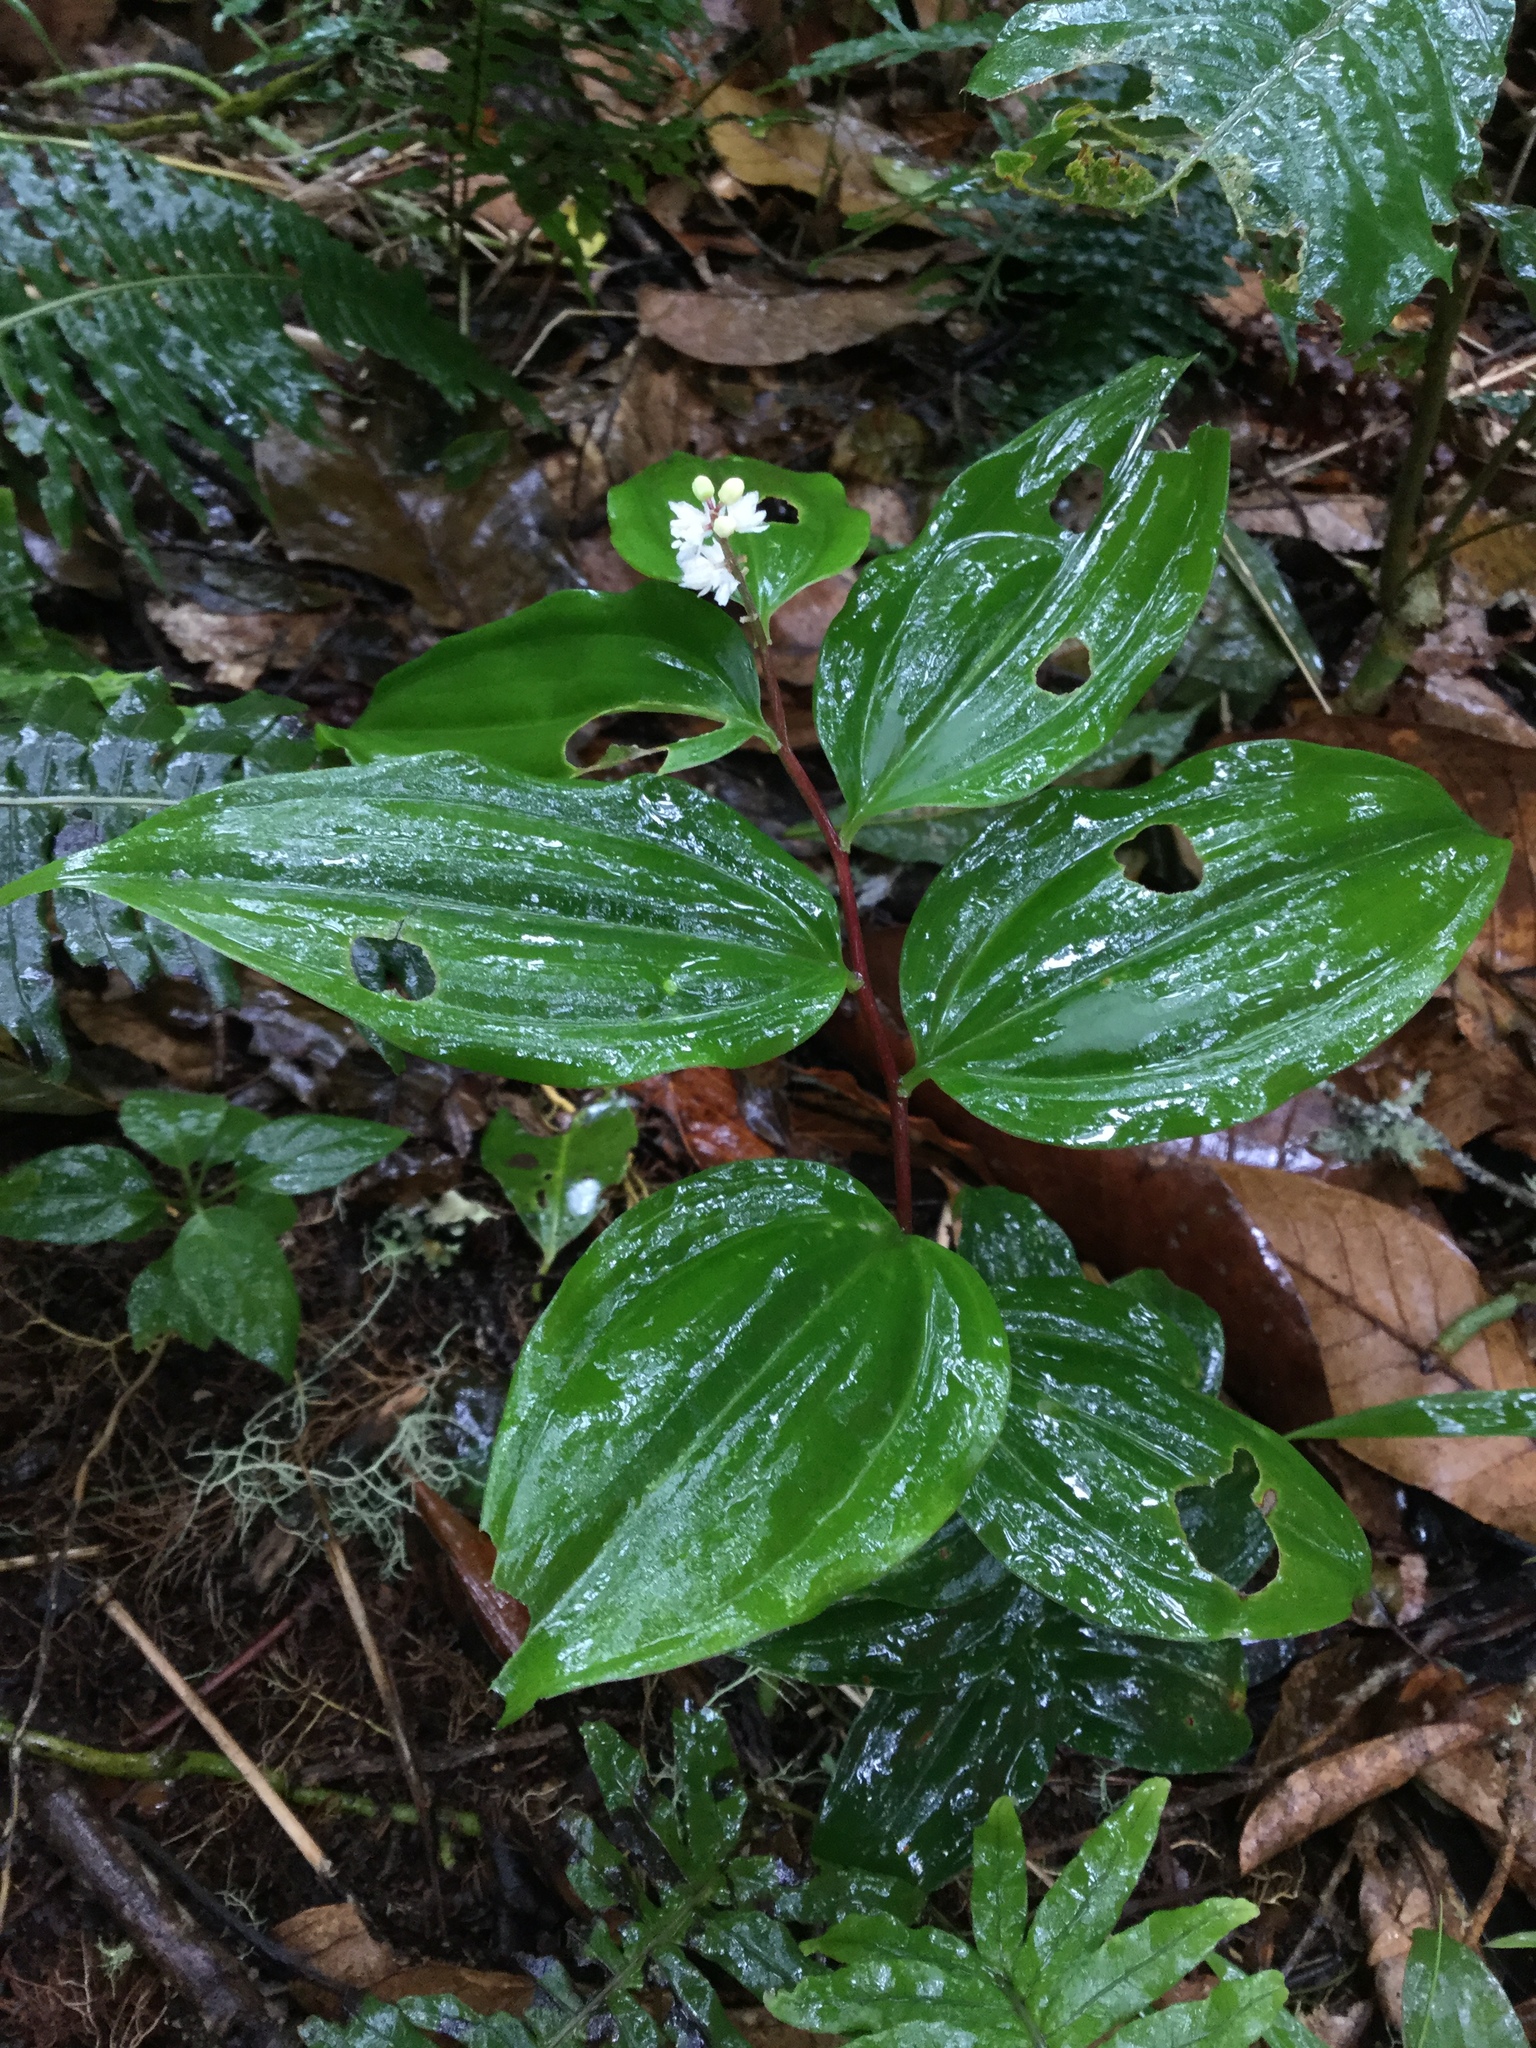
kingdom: Plantae
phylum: Tracheophyta
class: Liliopsida
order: Asparagales
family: Asparagaceae
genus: Maianthemum
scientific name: Maianthemum scilloideum
